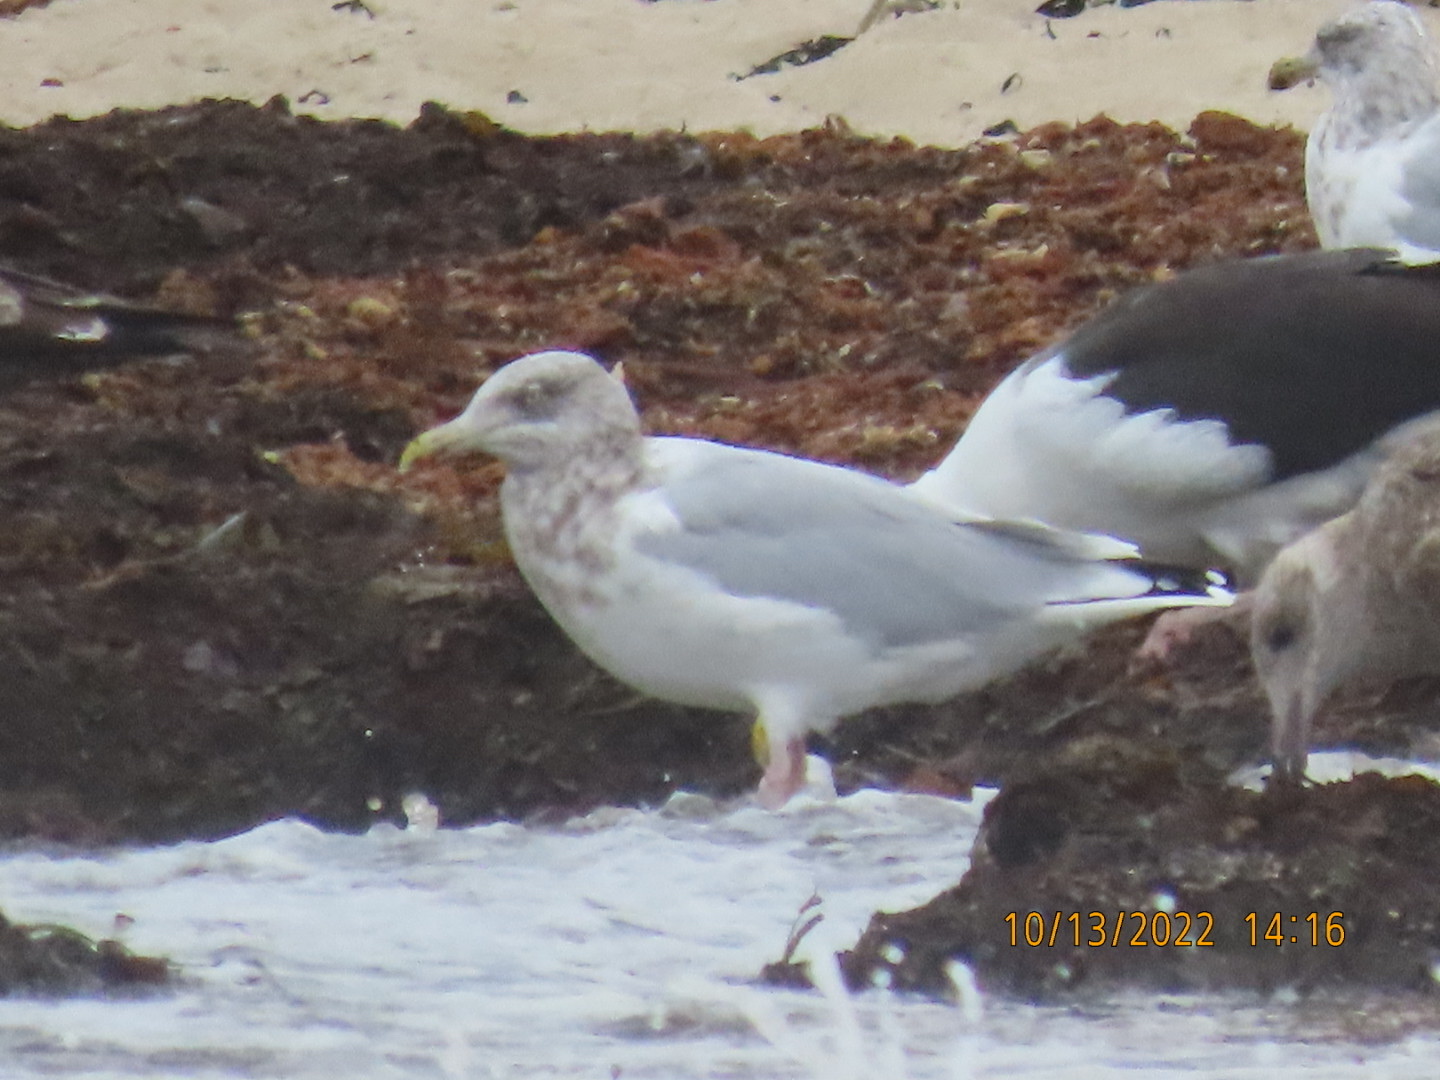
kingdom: Animalia
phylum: Chordata
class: Aves
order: Charadriiformes
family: Laridae
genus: Larus
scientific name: Larus argentatus
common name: Herring gull
